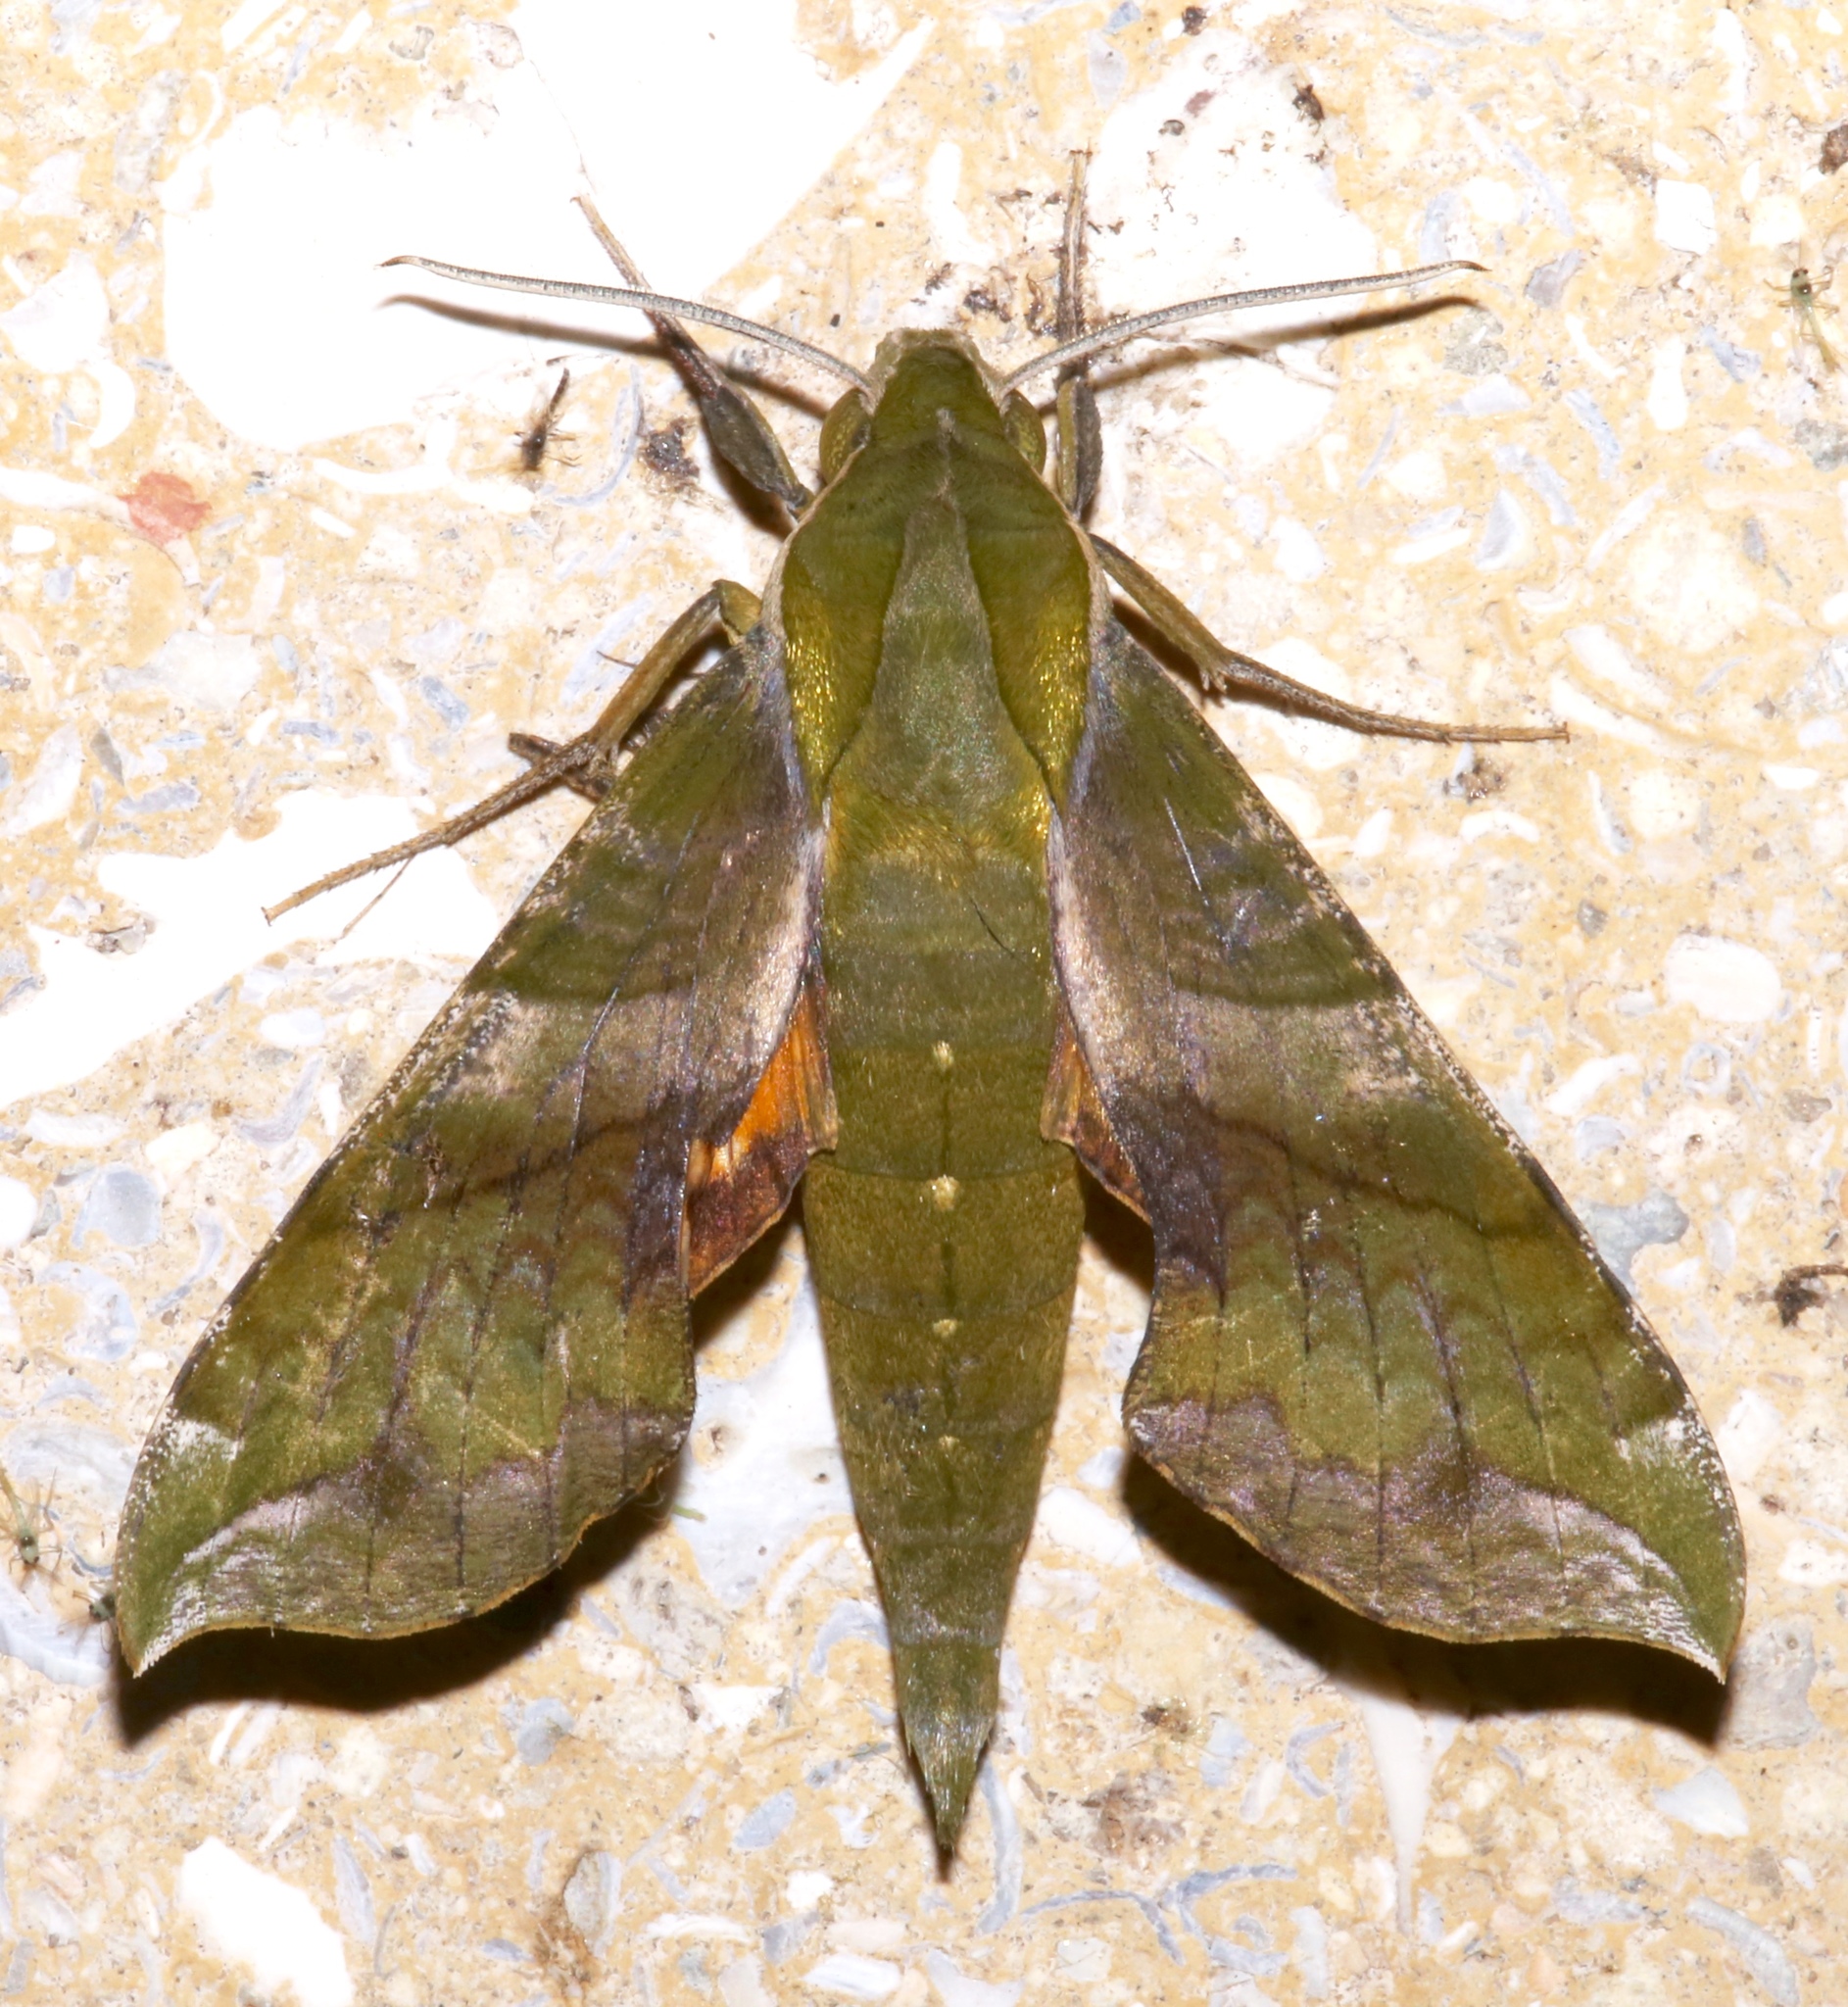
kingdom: Animalia
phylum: Arthropoda
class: Insecta
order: Lepidoptera
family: Sphingidae
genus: Xylophanes
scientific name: Xylophanes pluto
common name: Pluto sphinx
